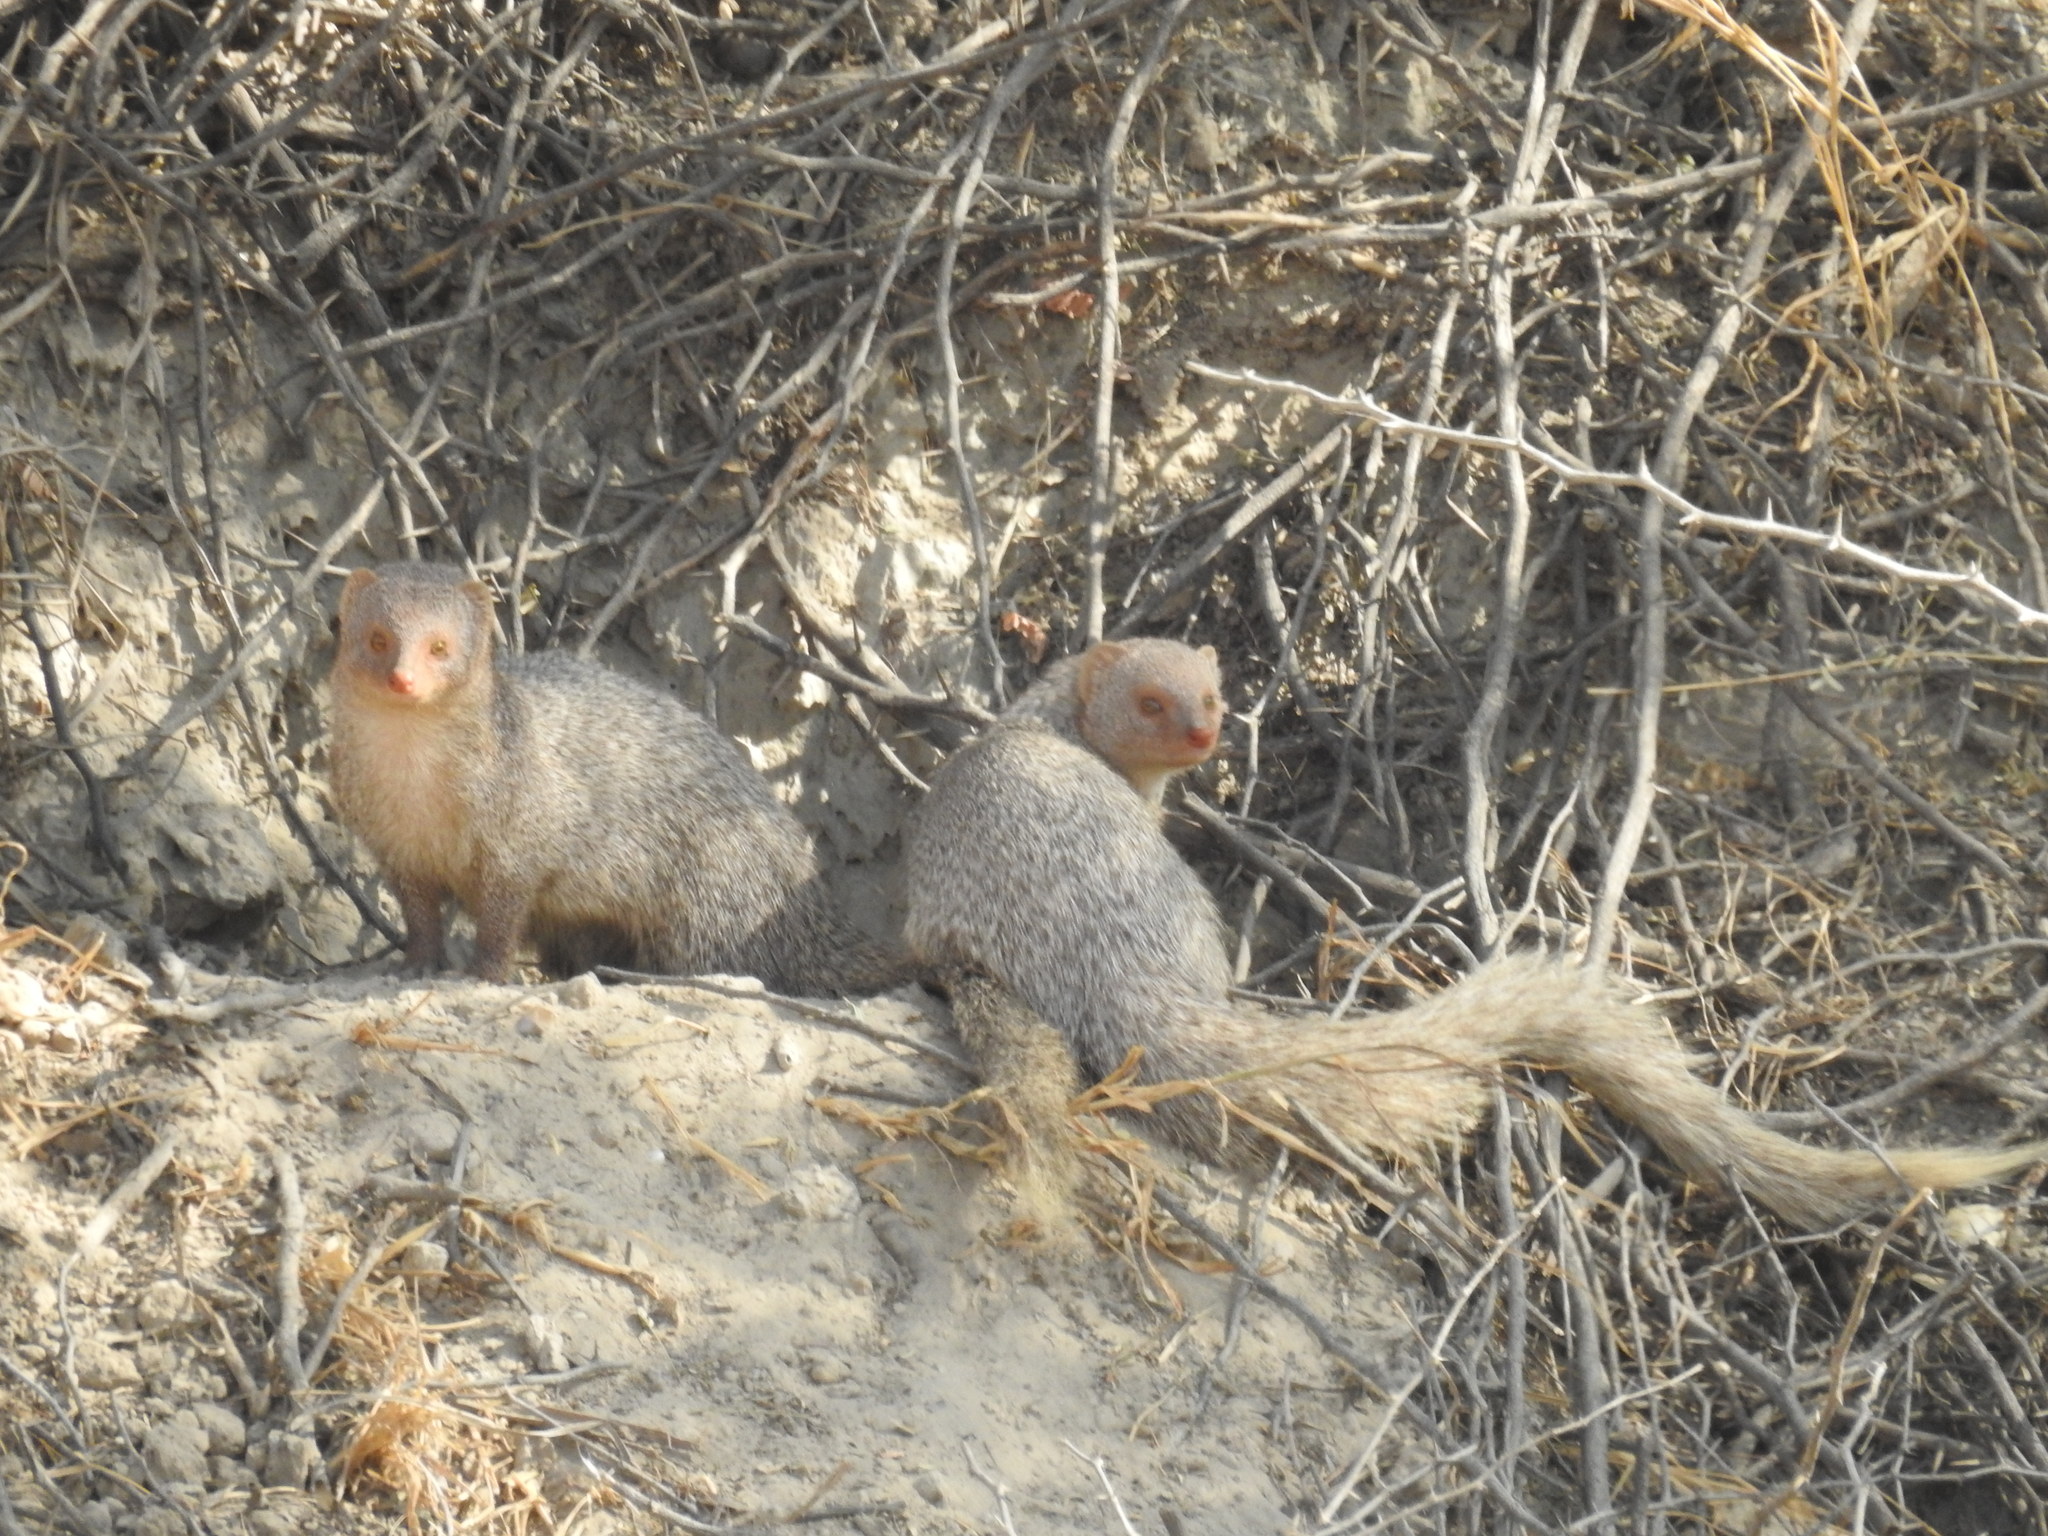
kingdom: Animalia
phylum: Chordata
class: Mammalia
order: Carnivora
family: Herpestidae
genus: Herpestes
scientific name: Herpestes edwardsi
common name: Indian gray mongoose
